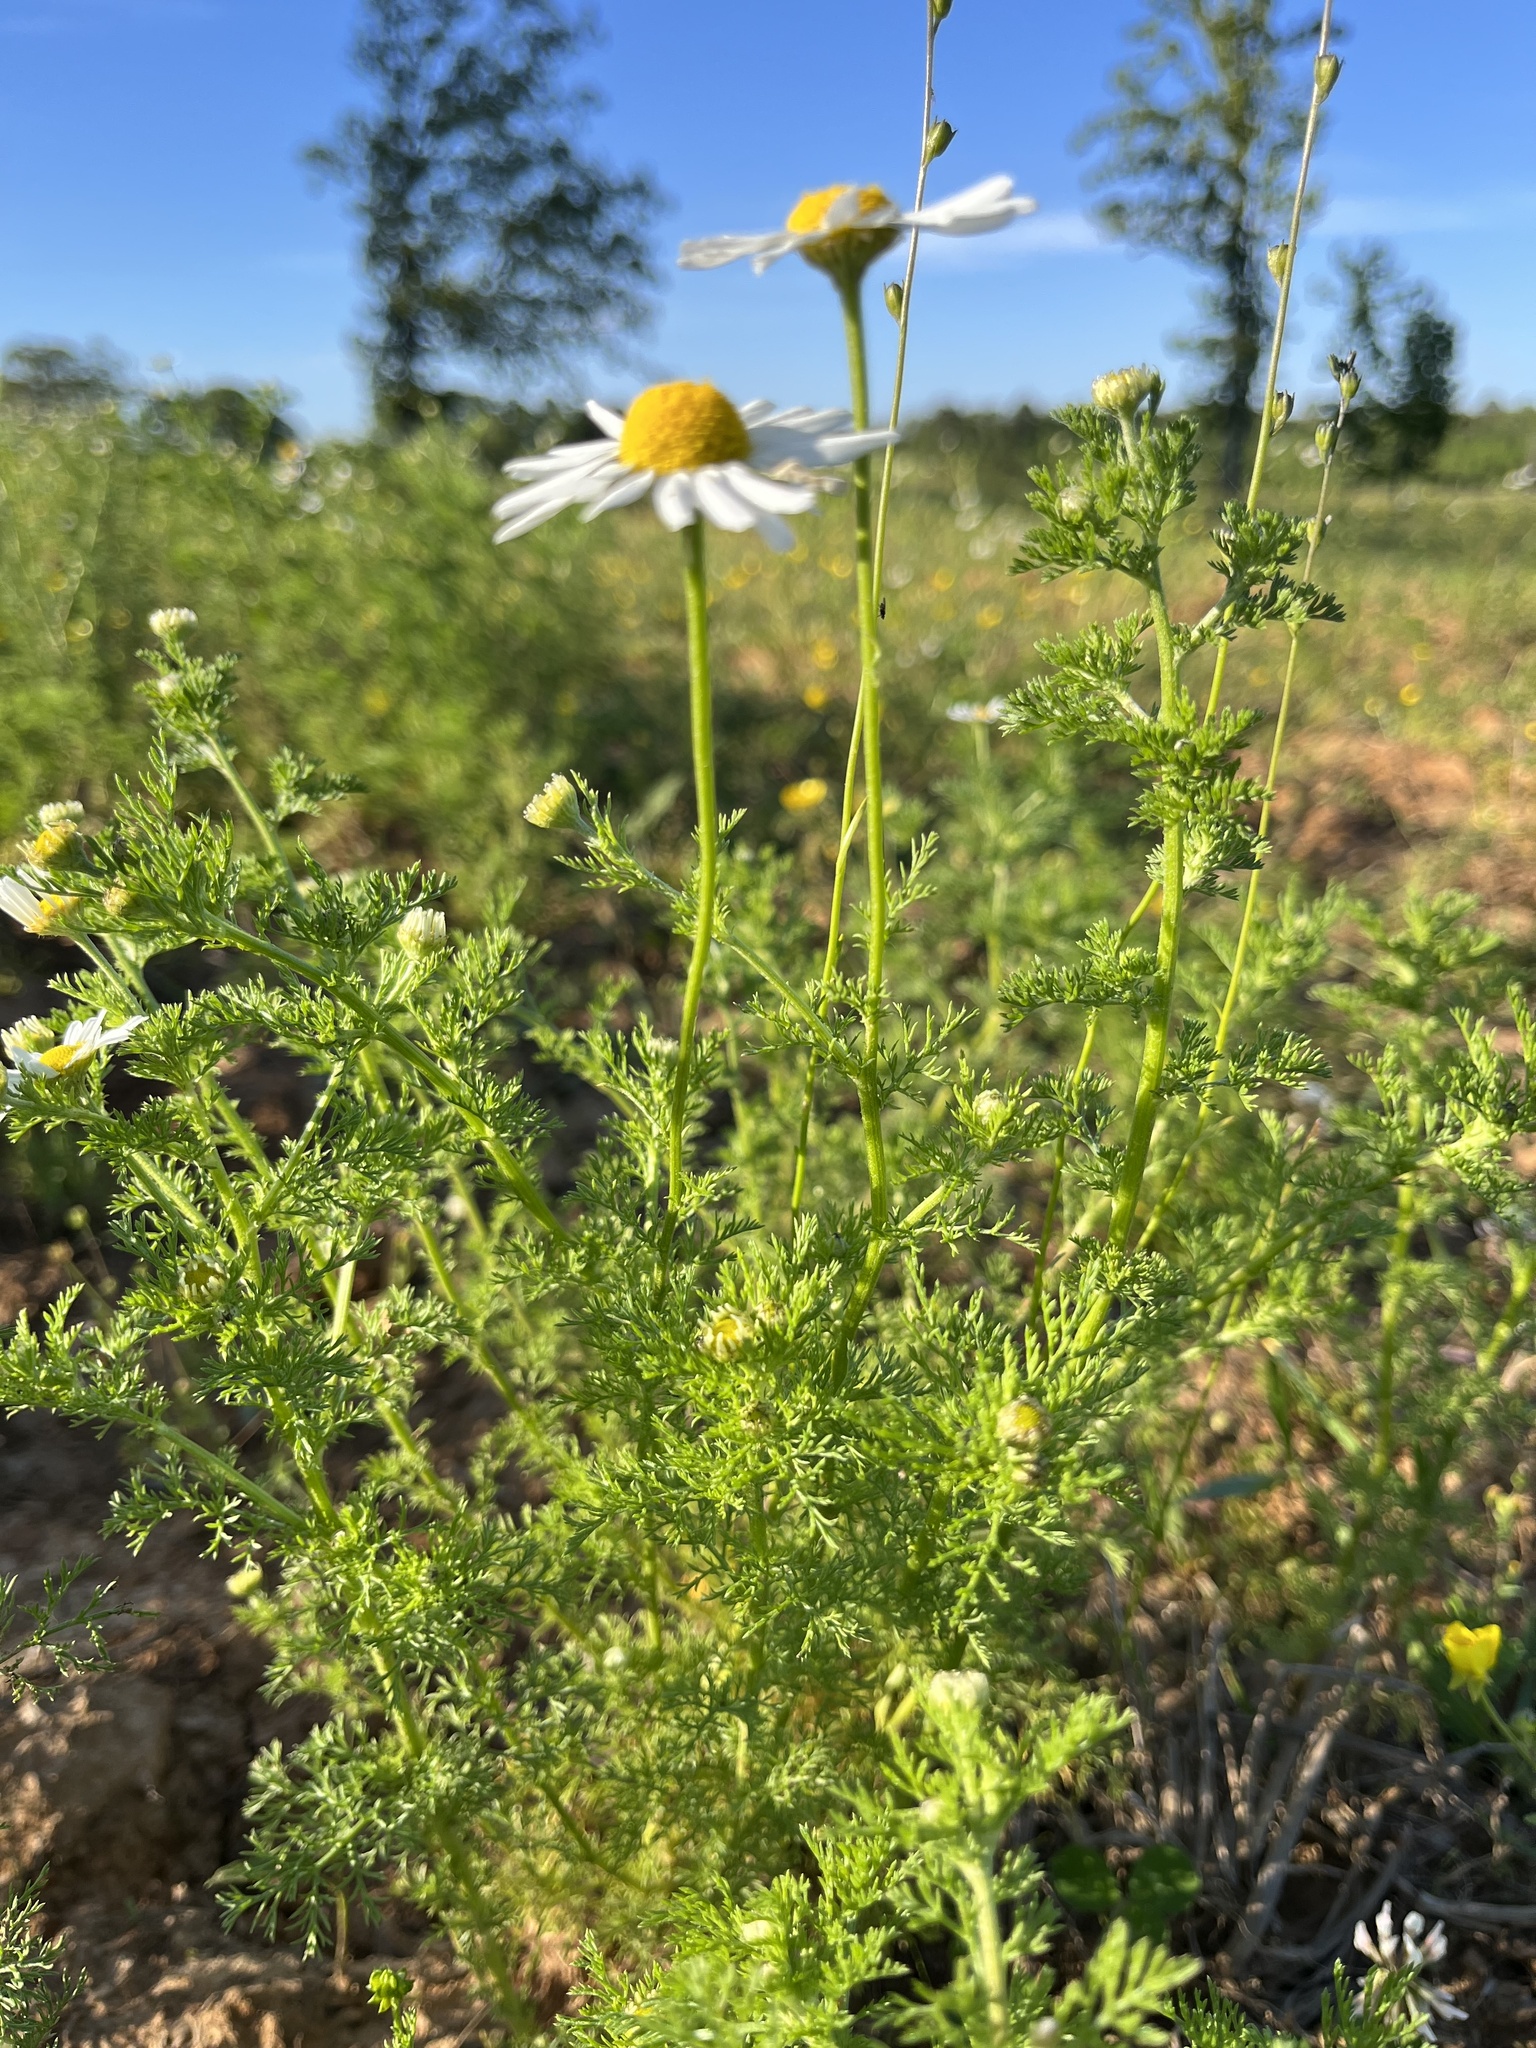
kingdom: Plantae
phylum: Tracheophyta
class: Magnoliopsida
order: Asterales
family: Asteraceae
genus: Anthemis
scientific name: Anthemis cotula
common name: Stinking chamomile
